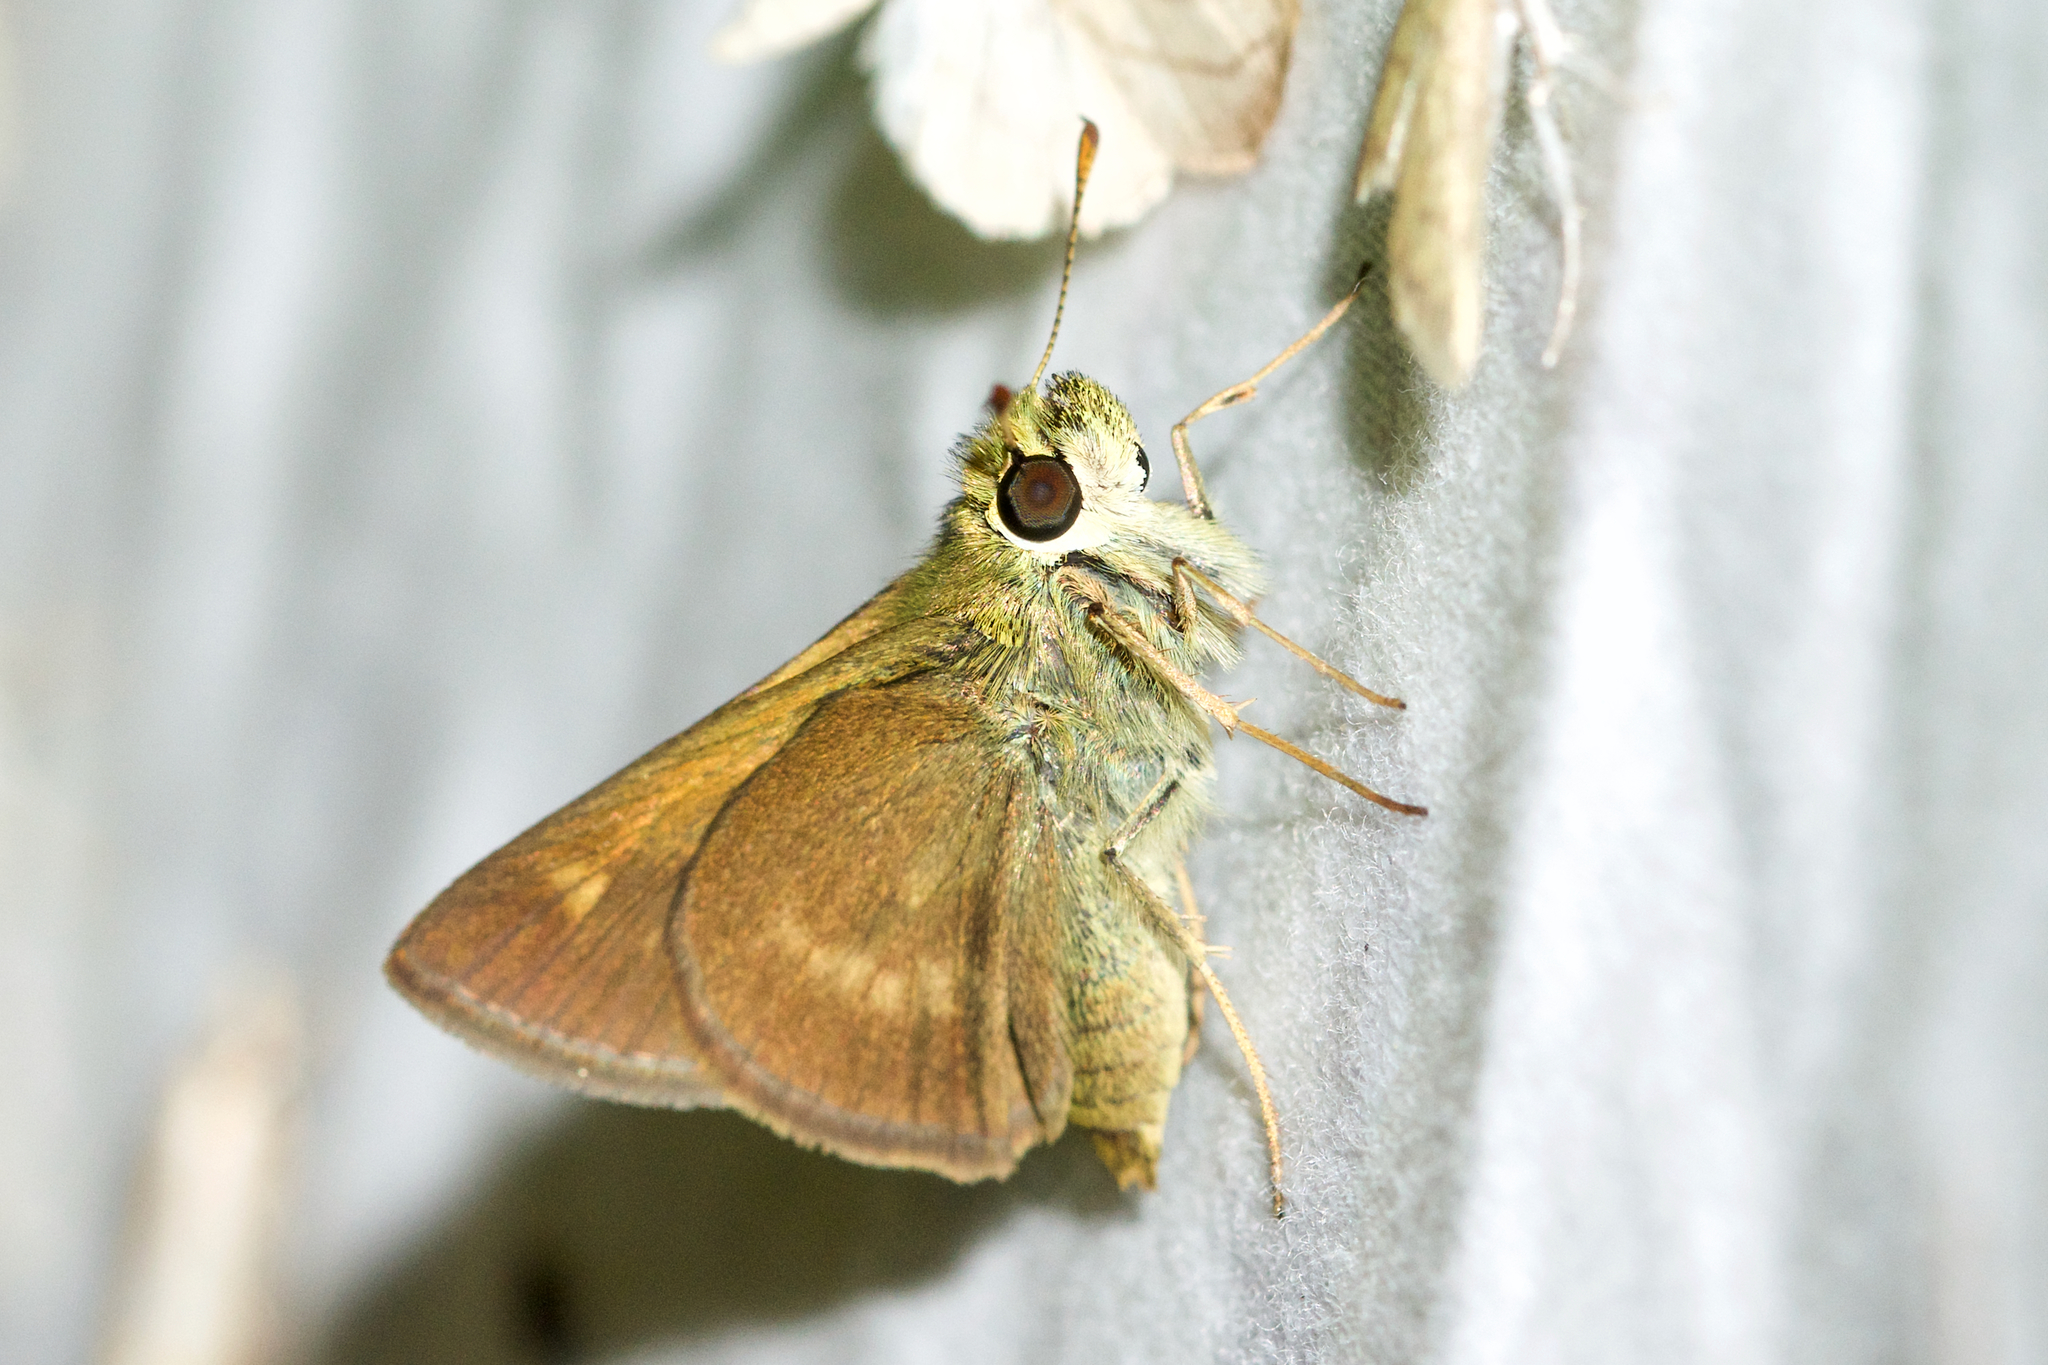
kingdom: Animalia
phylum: Arthropoda
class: Insecta
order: Lepidoptera
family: Hesperiidae
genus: Polites
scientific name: Polites egeremet
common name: Northern broken-dash
